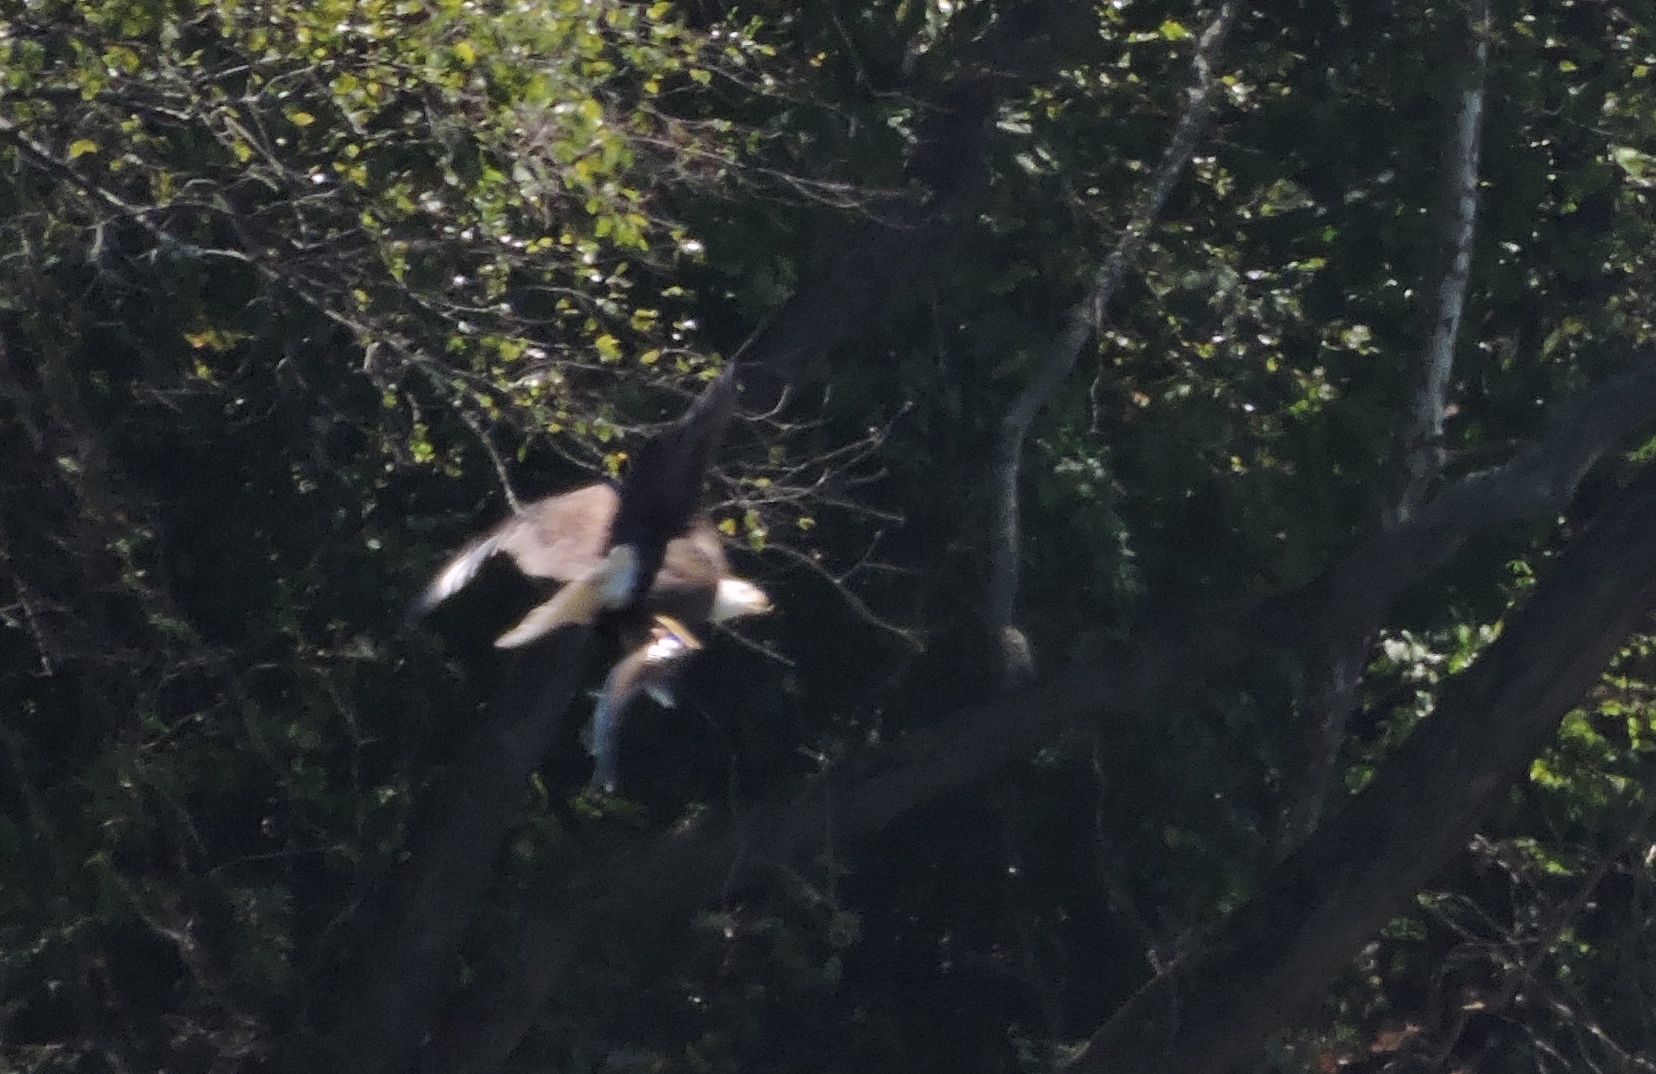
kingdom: Animalia
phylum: Chordata
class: Aves
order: Accipitriformes
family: Accipitridae
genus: Haliaeetus
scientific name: Haliaeetus leucocephalus
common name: Bald eagle
